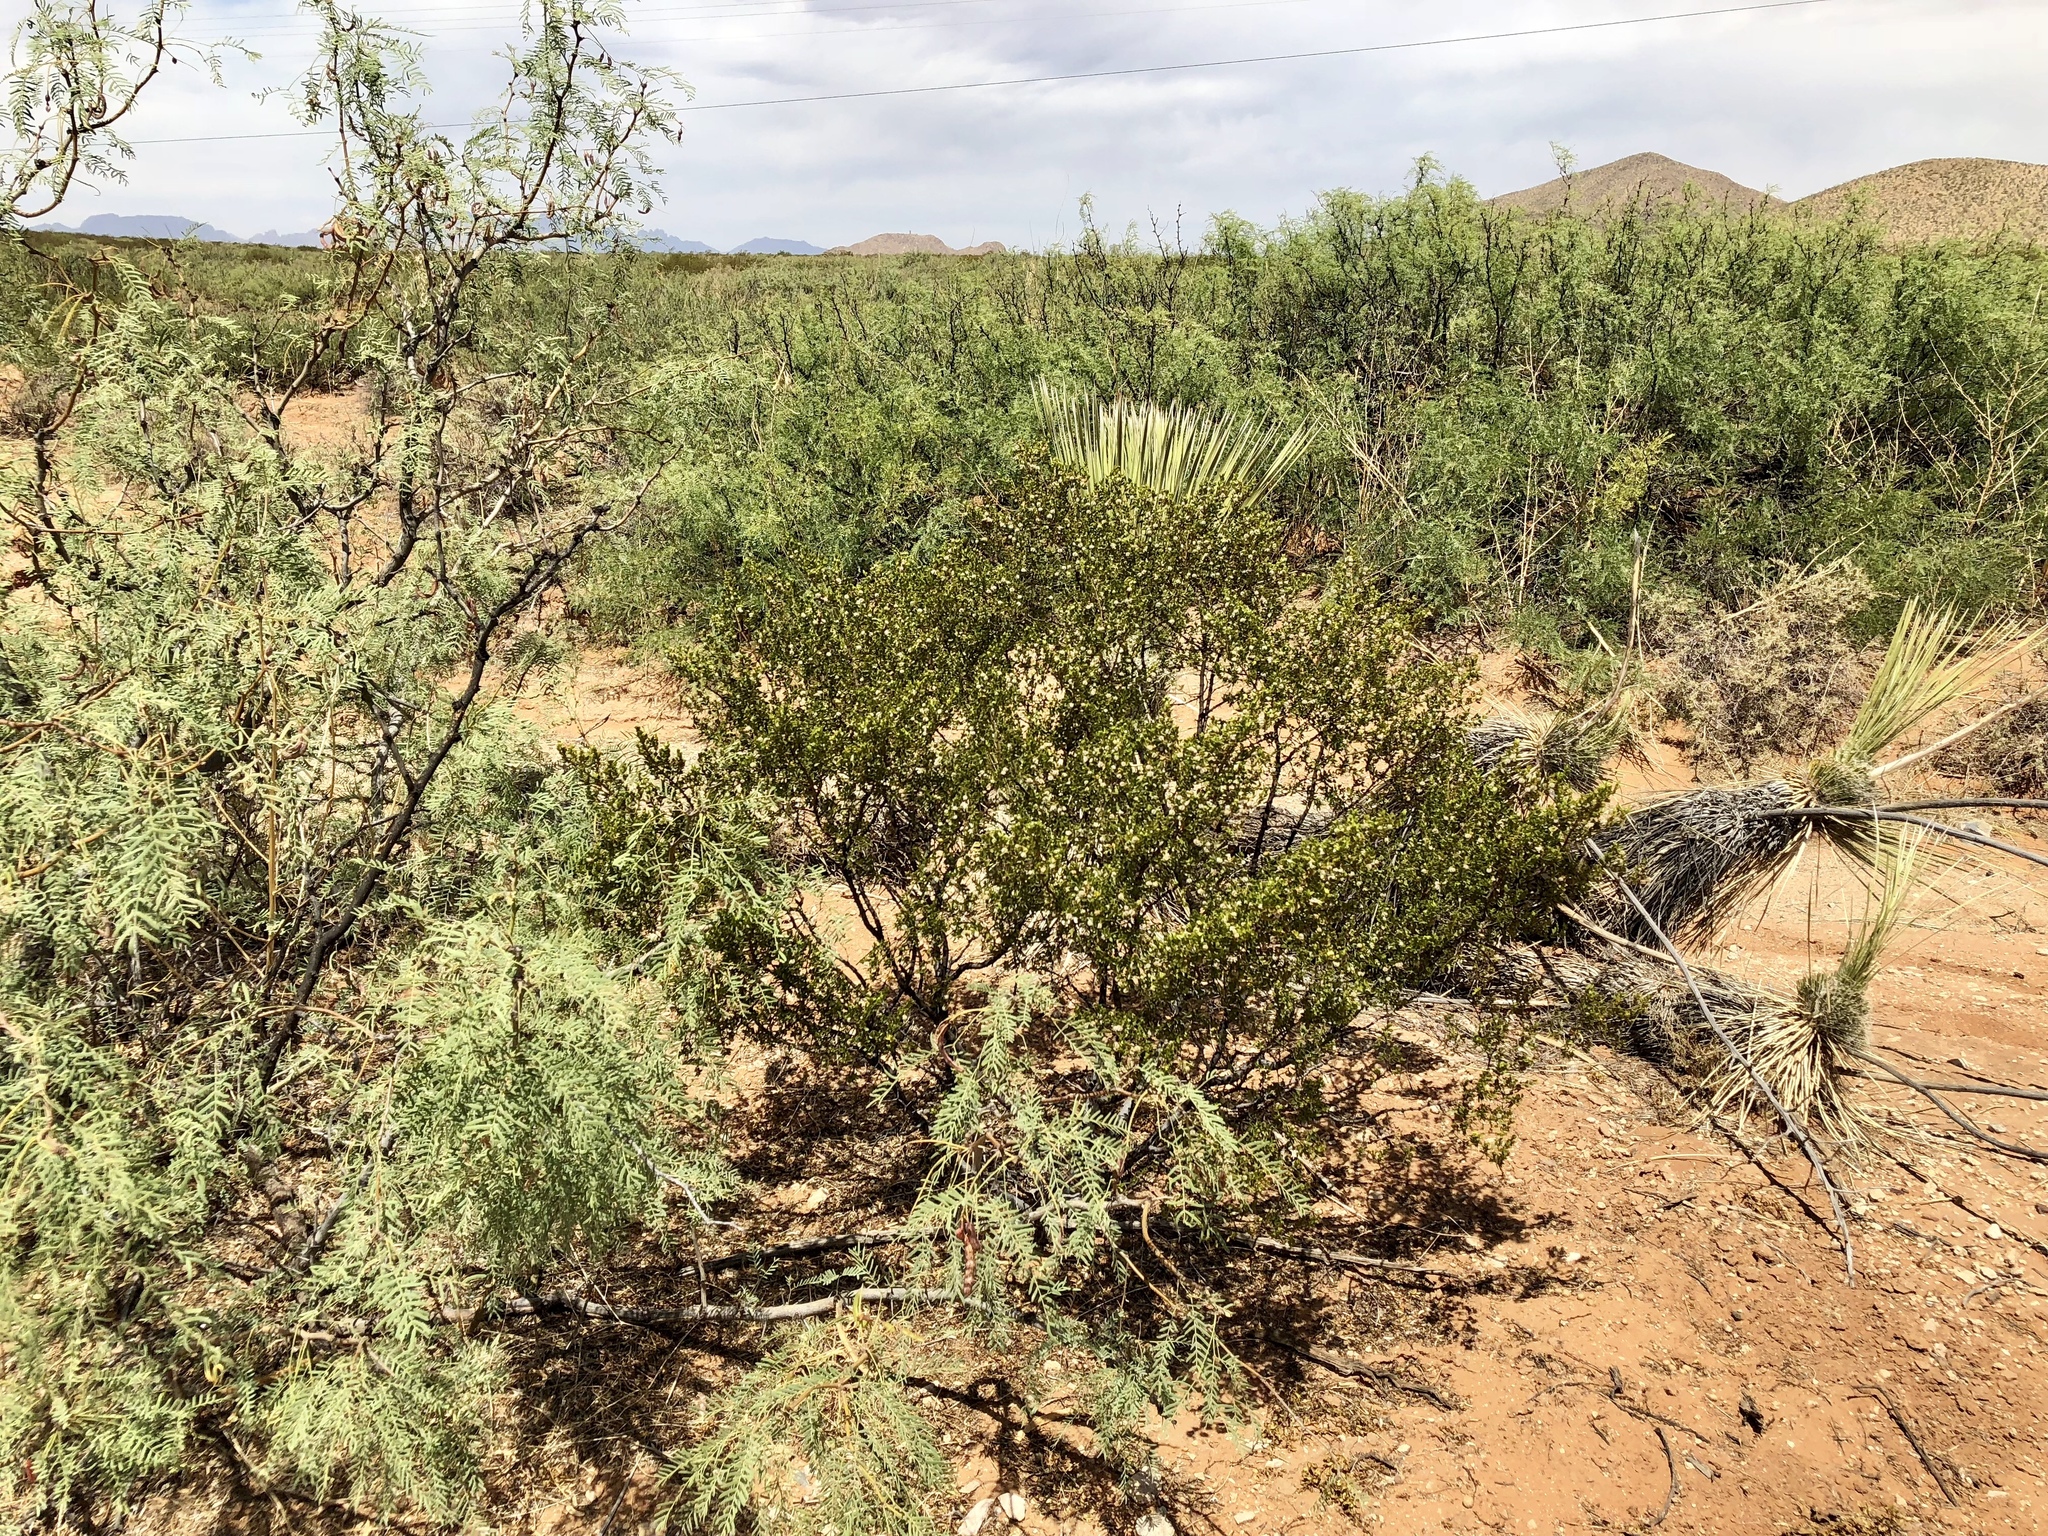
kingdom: Plantae
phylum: Tracheophyta
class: Magnoliopsida
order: Zygophyllales
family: Zygophyllaceae
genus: Larrea
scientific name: Larrea tridentata
